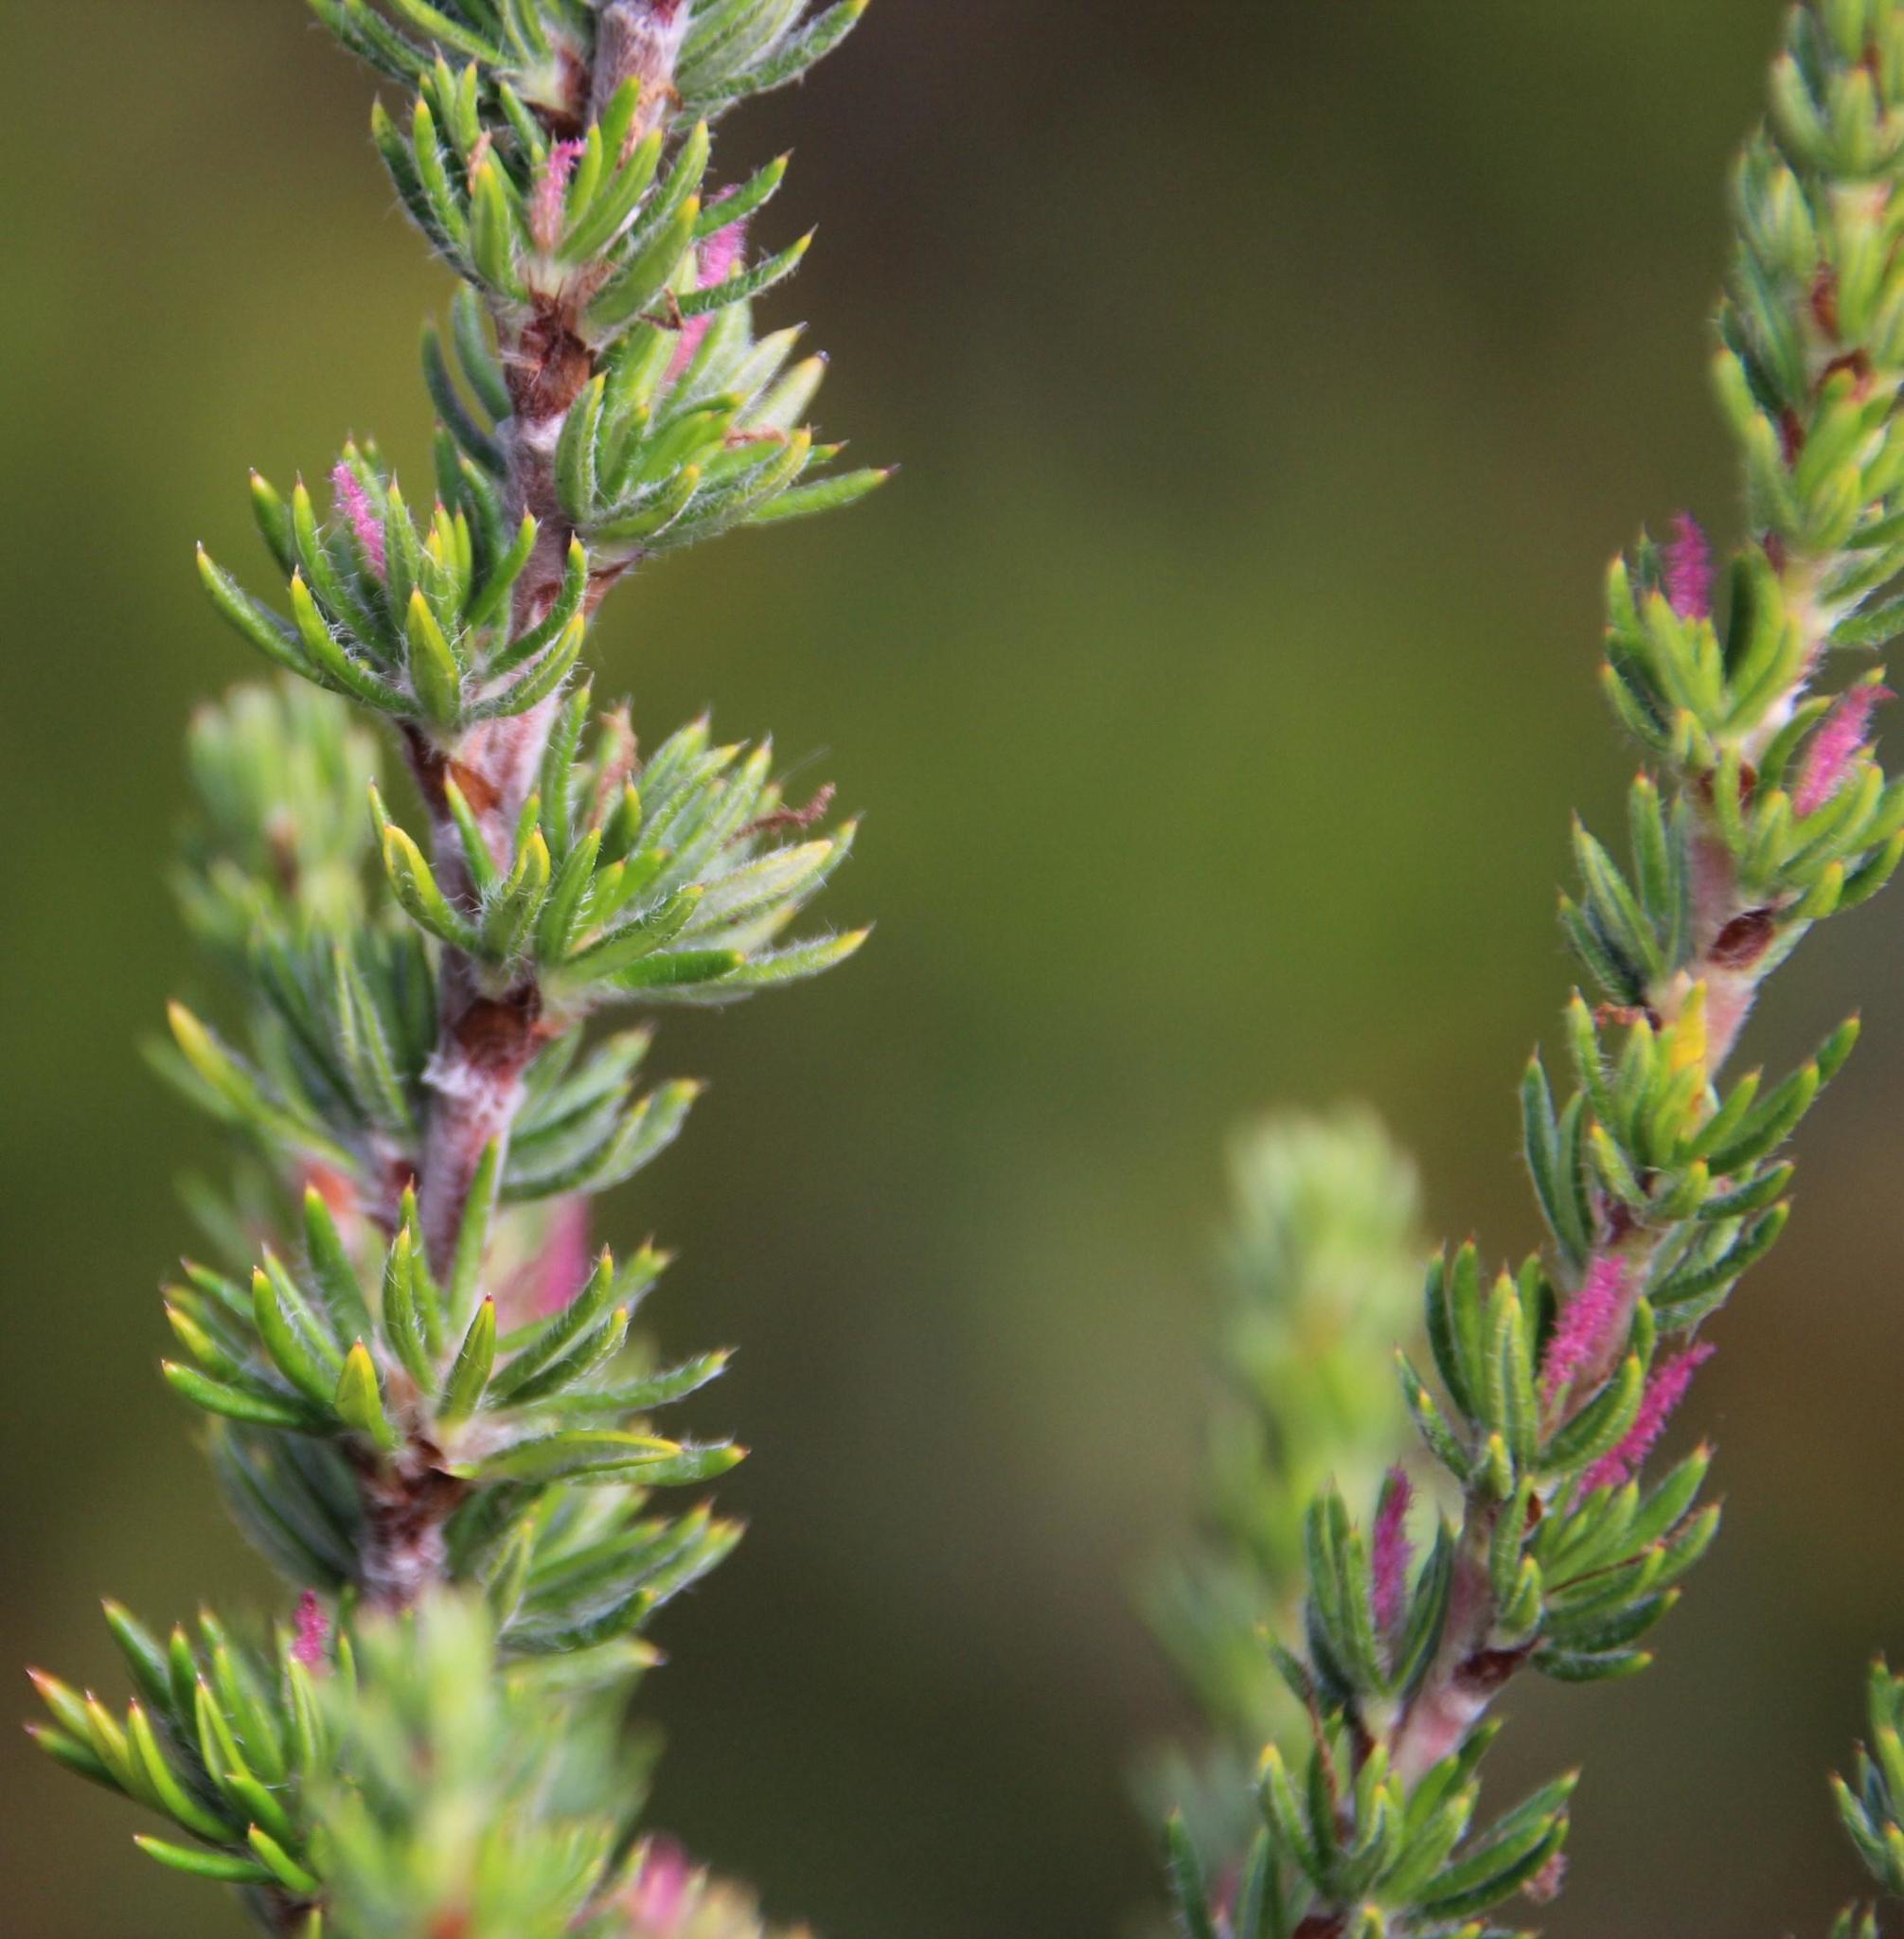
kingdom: Plantae
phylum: Tracheophyta
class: Magnoliopsida
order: Rosales
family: Rosaceae
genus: Cliffortia
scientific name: Cliffortia stricta
